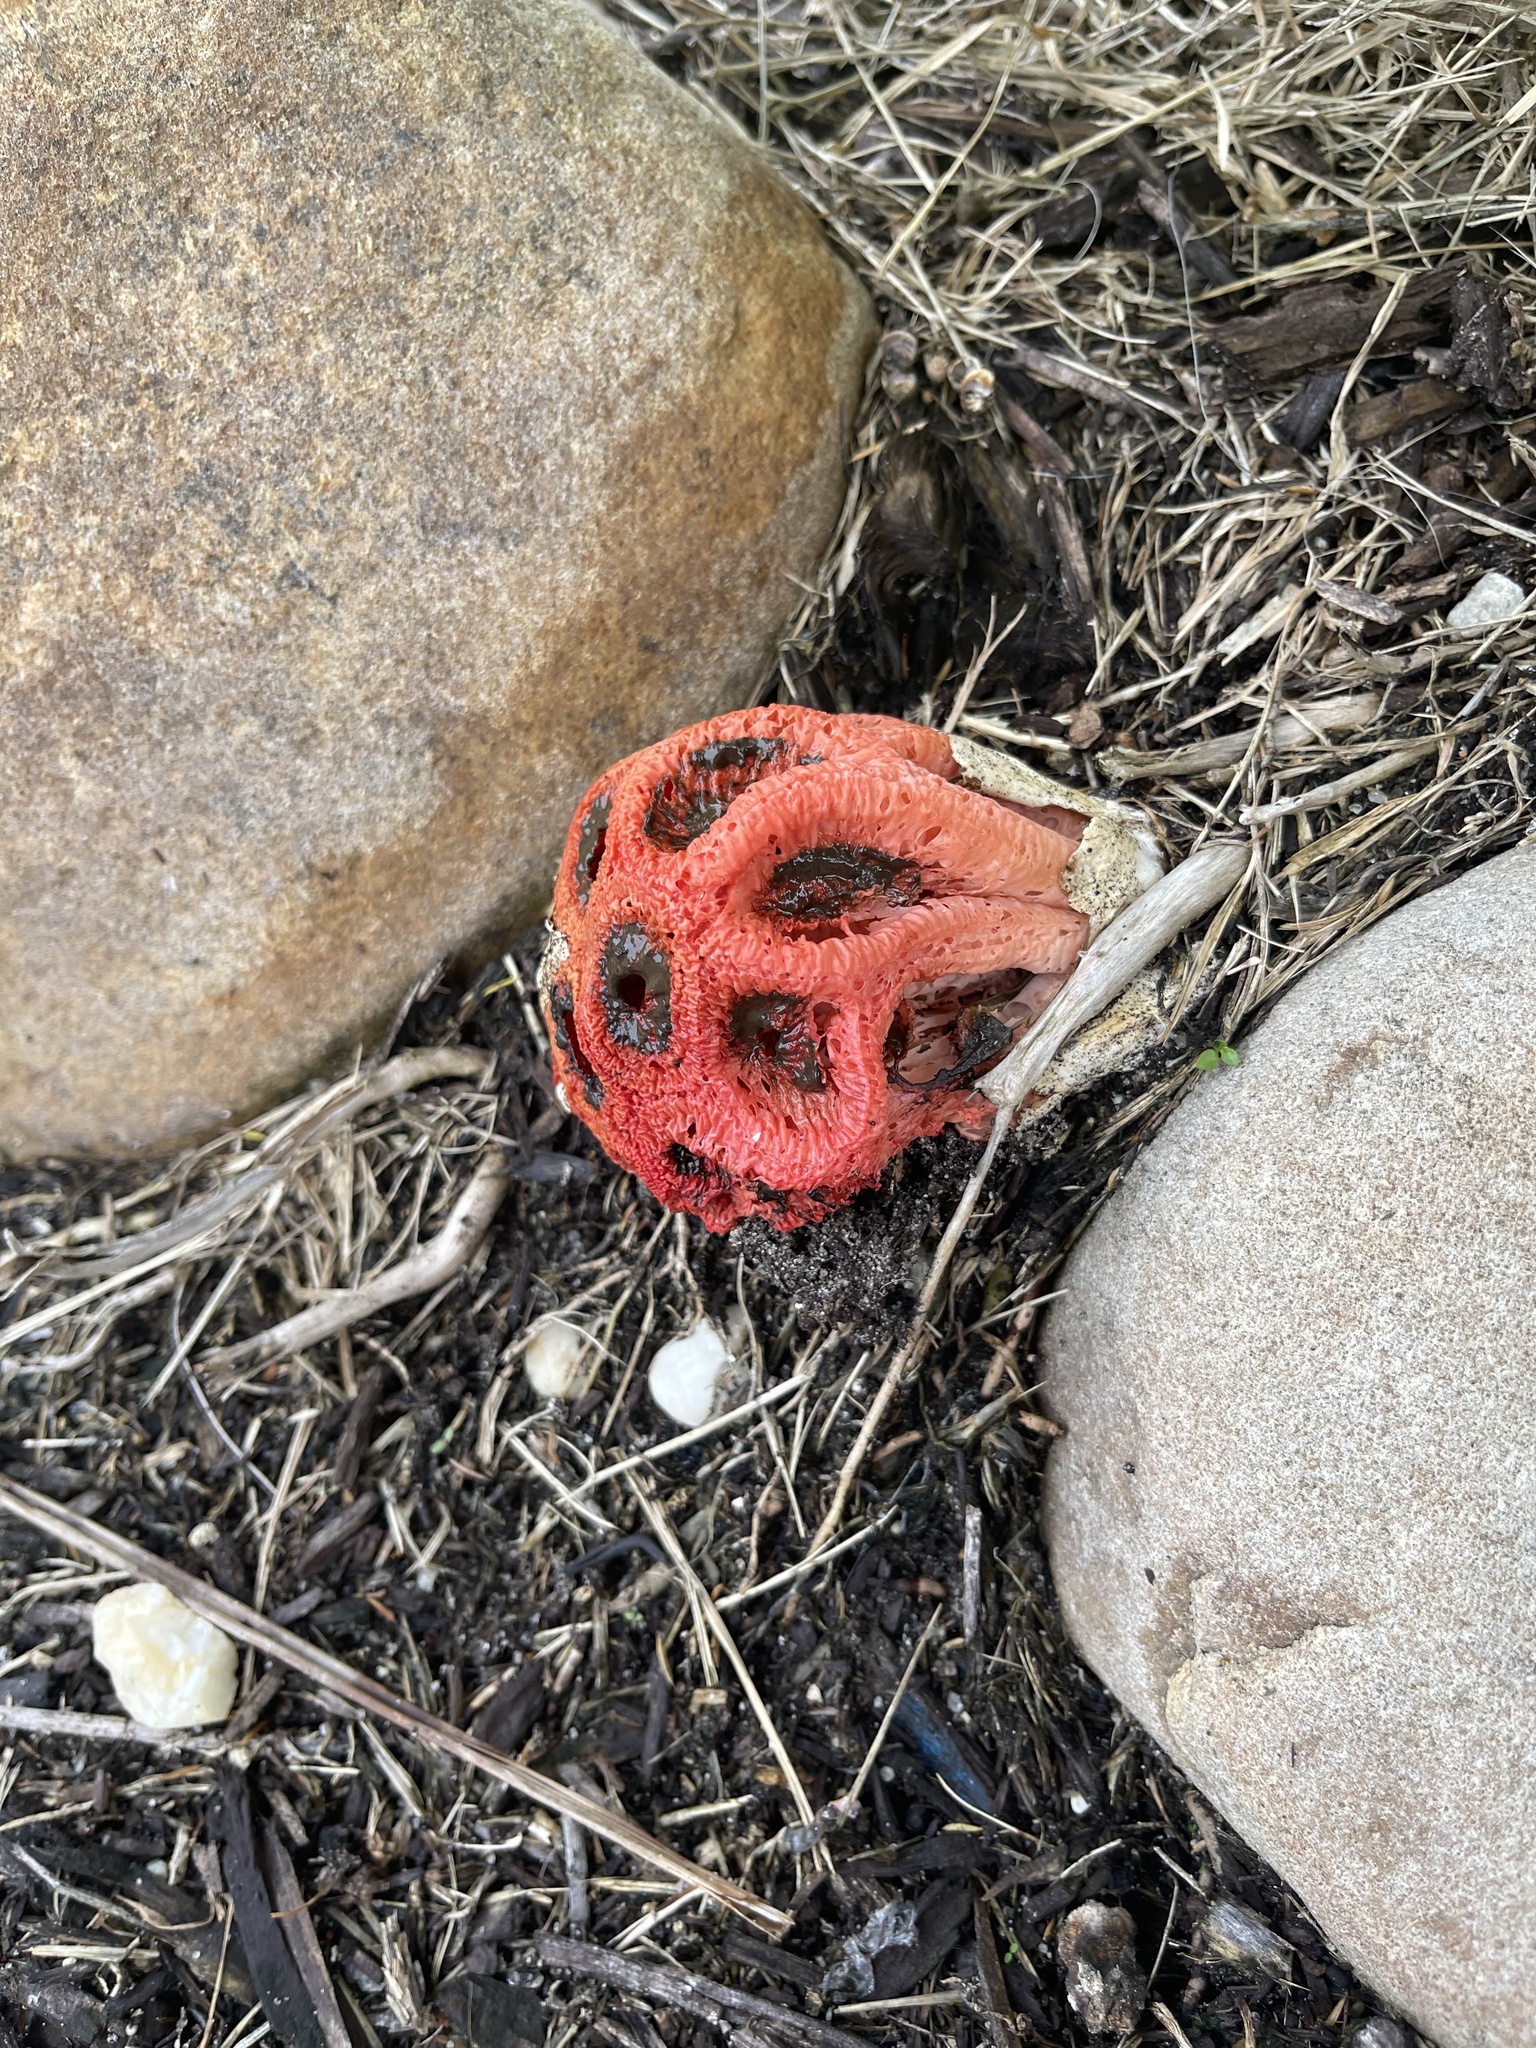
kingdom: Fungi
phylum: Basidiomycota
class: Agaricomycetes
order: Phallales
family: Phallaceae
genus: Clathrus
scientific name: Clathrus crispatus
